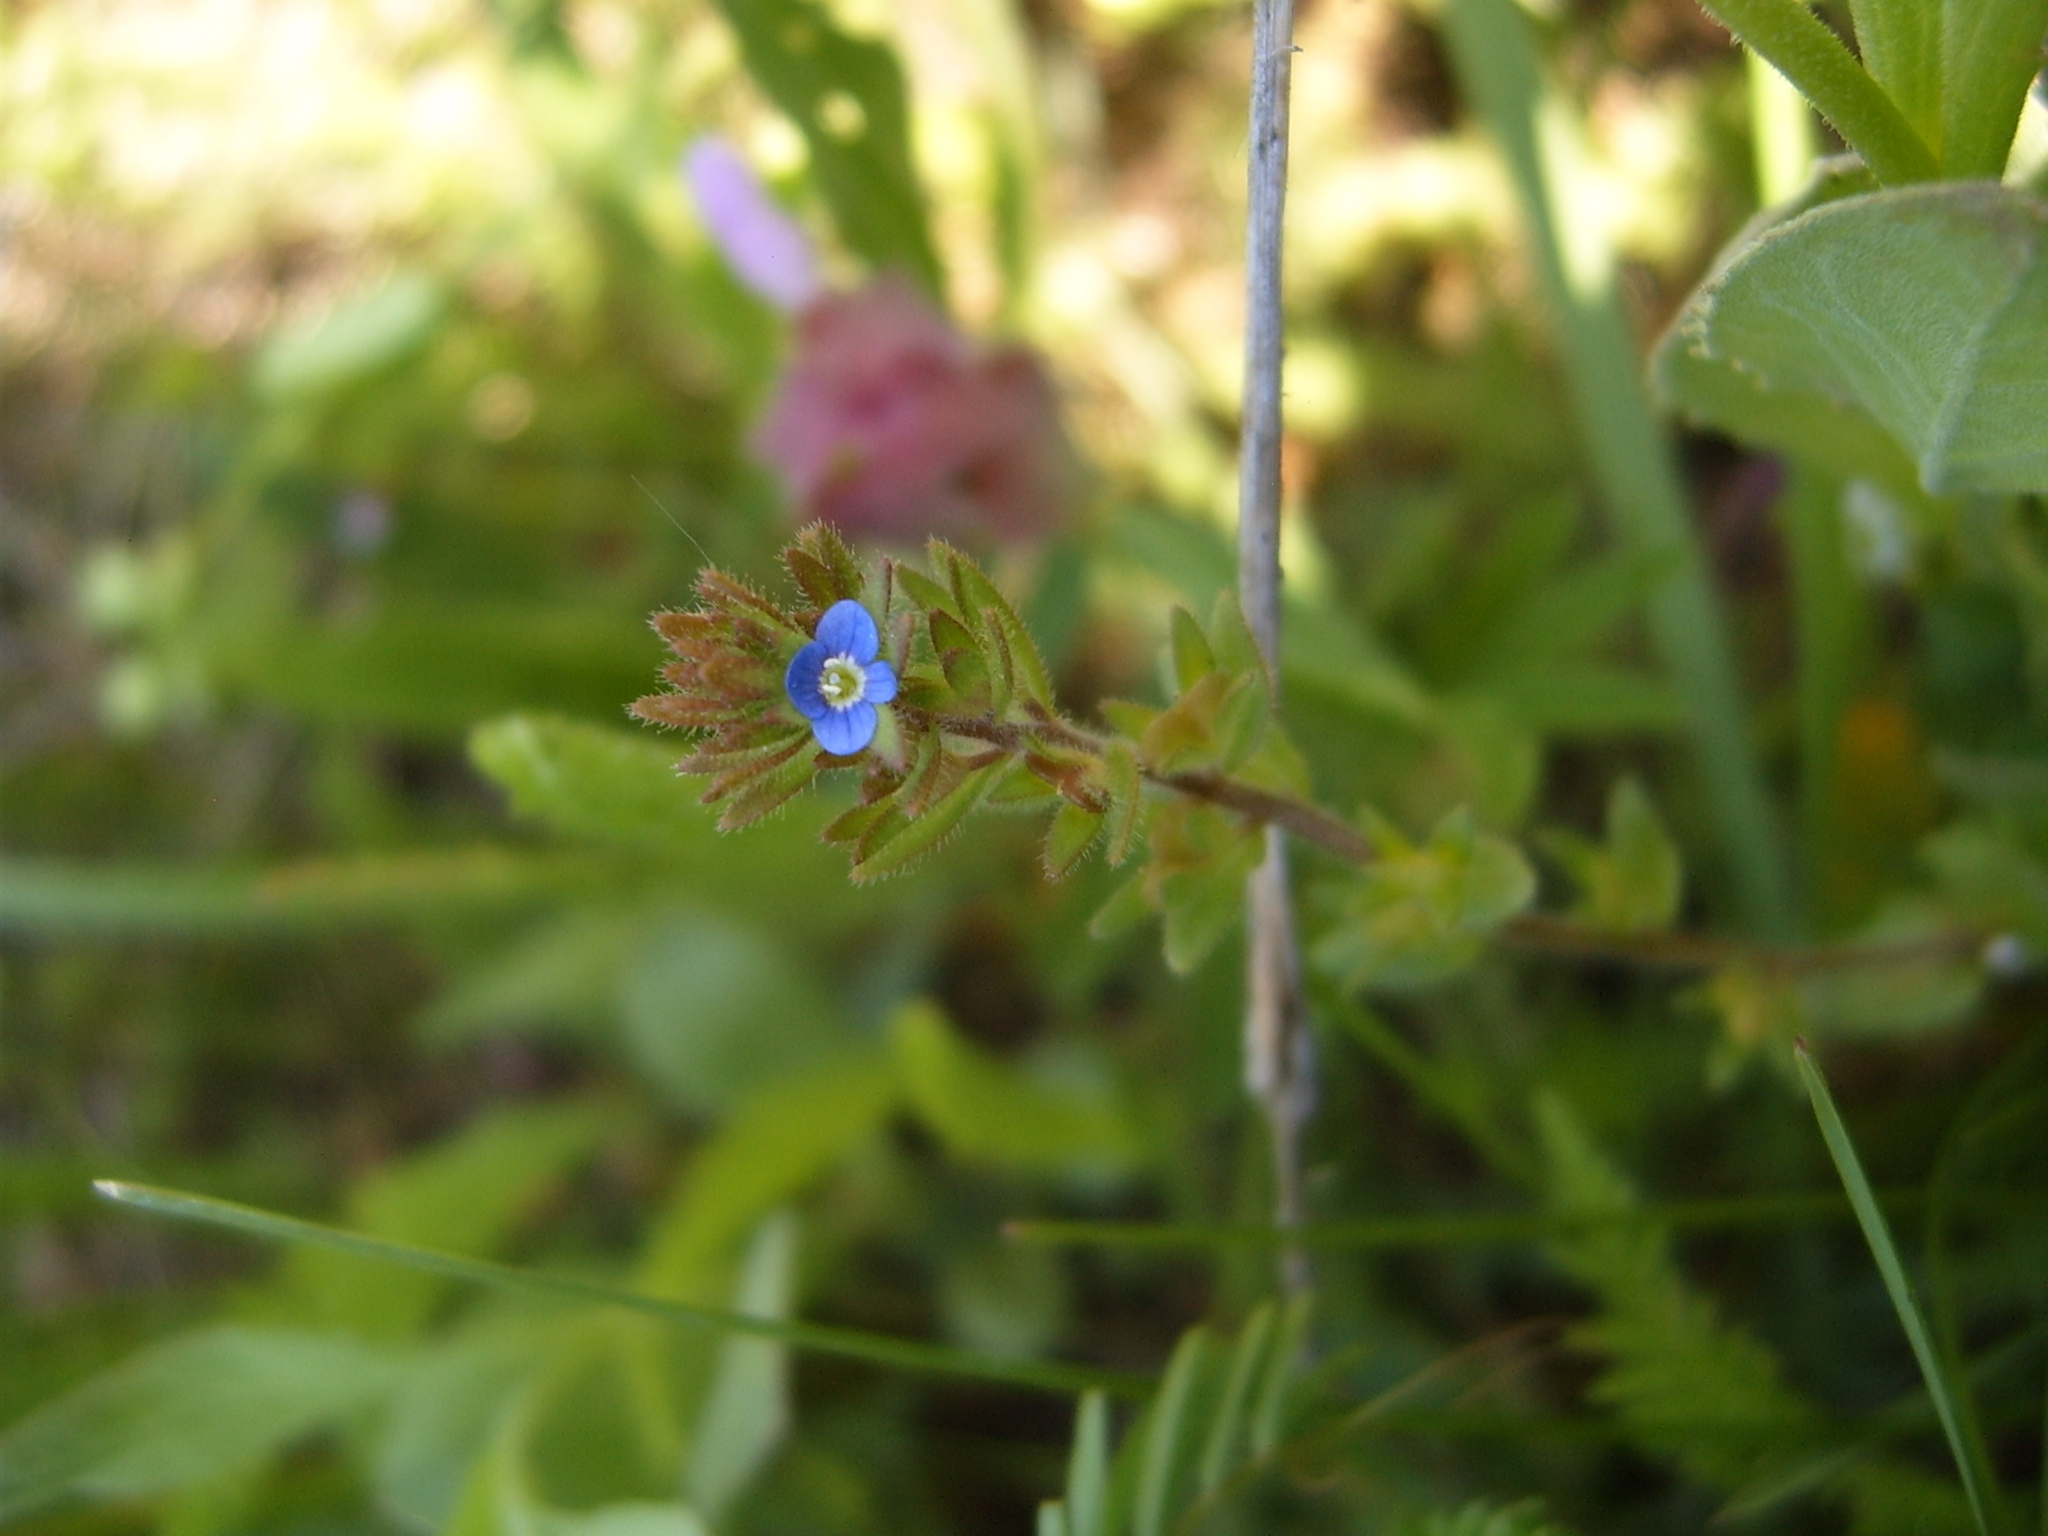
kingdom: Plantae
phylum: Tracheophyta
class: Magnoliopsida
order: Lamiales
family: Plantaginaceae
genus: Veronica
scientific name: Veronica arvensis
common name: Corn speedwell
